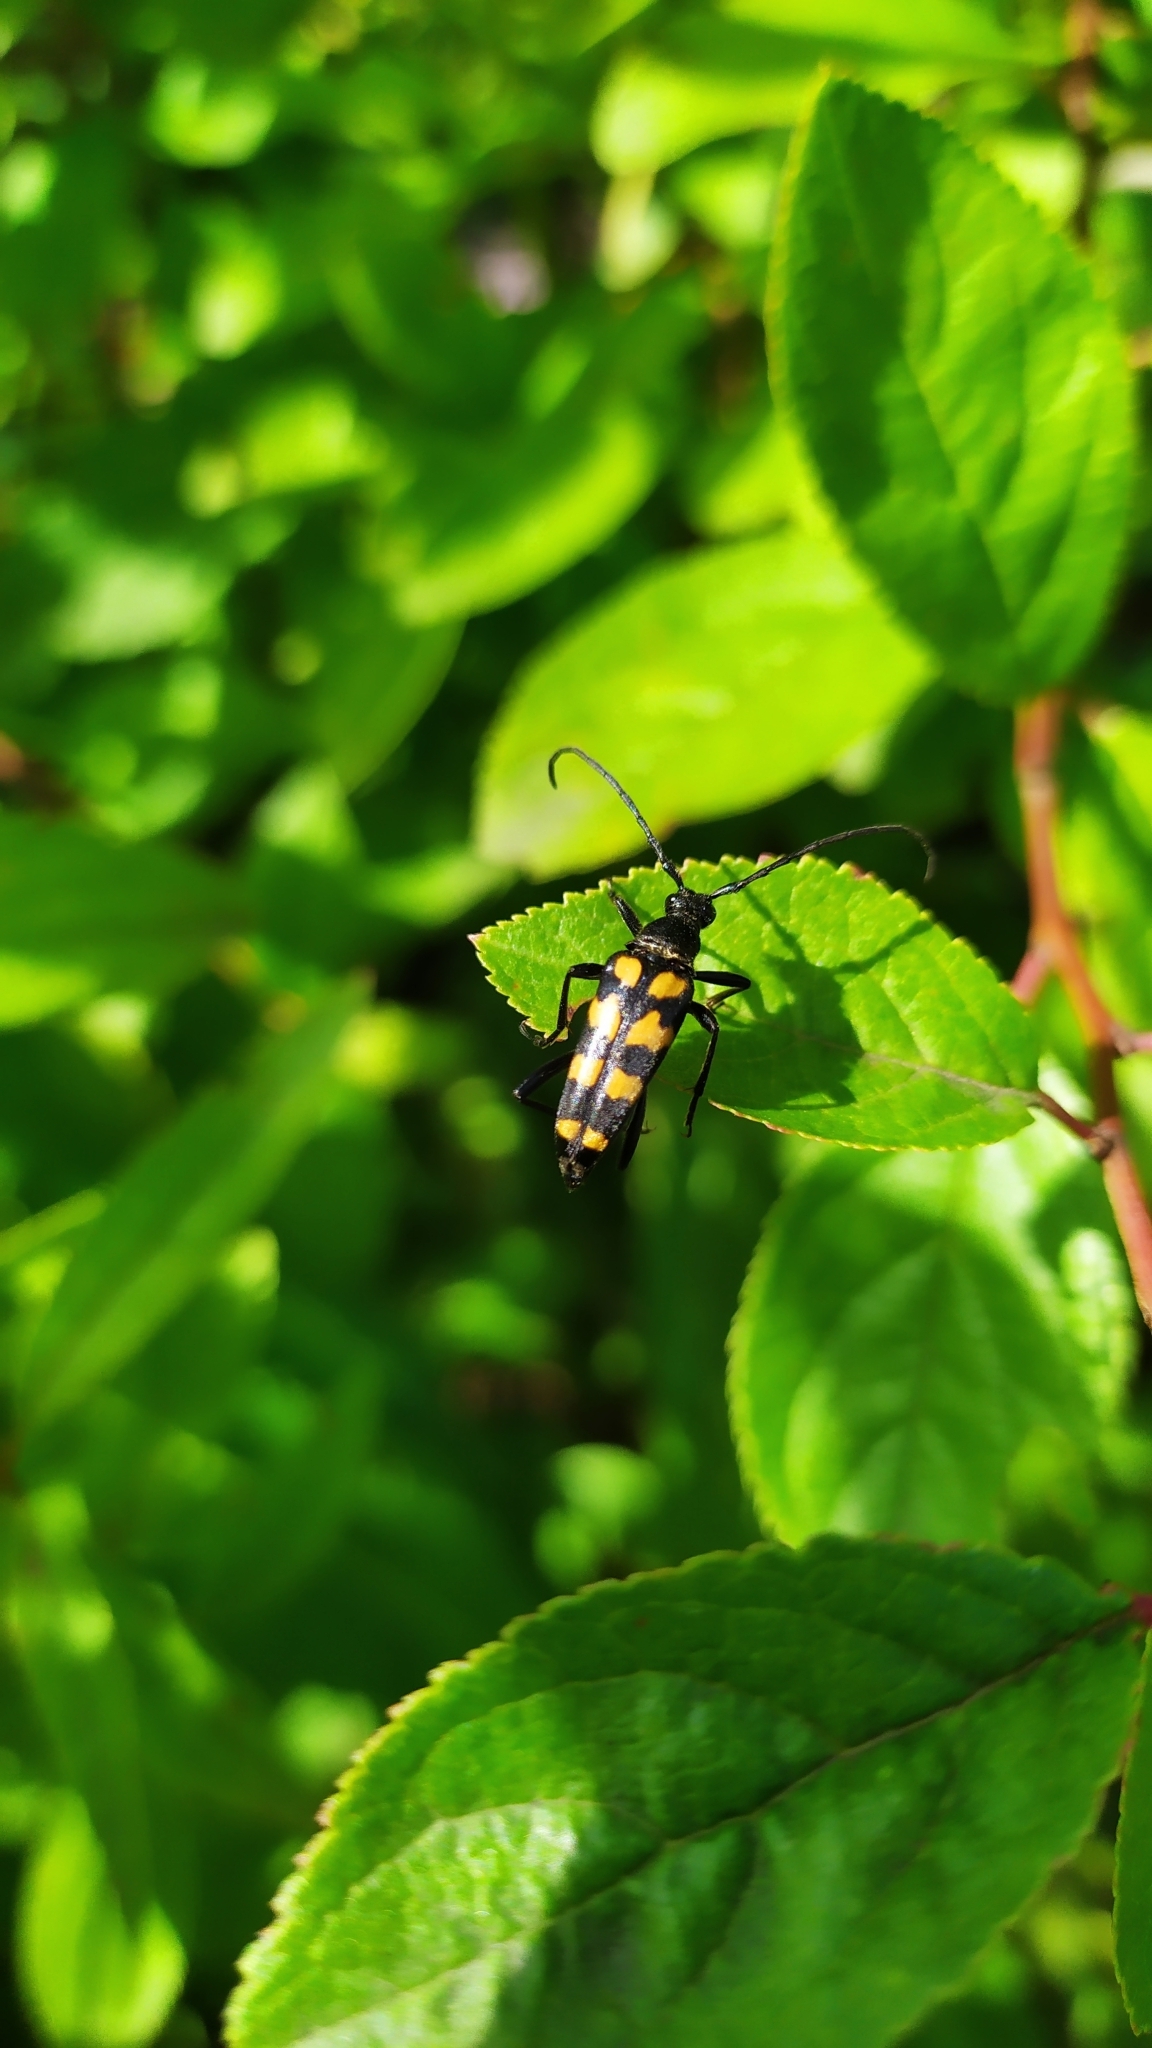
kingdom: Animalia
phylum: Arthropoda
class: Insecta
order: Coleoptera
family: Cerambycidae
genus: Leptura
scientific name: Leptura quadrifasciata
